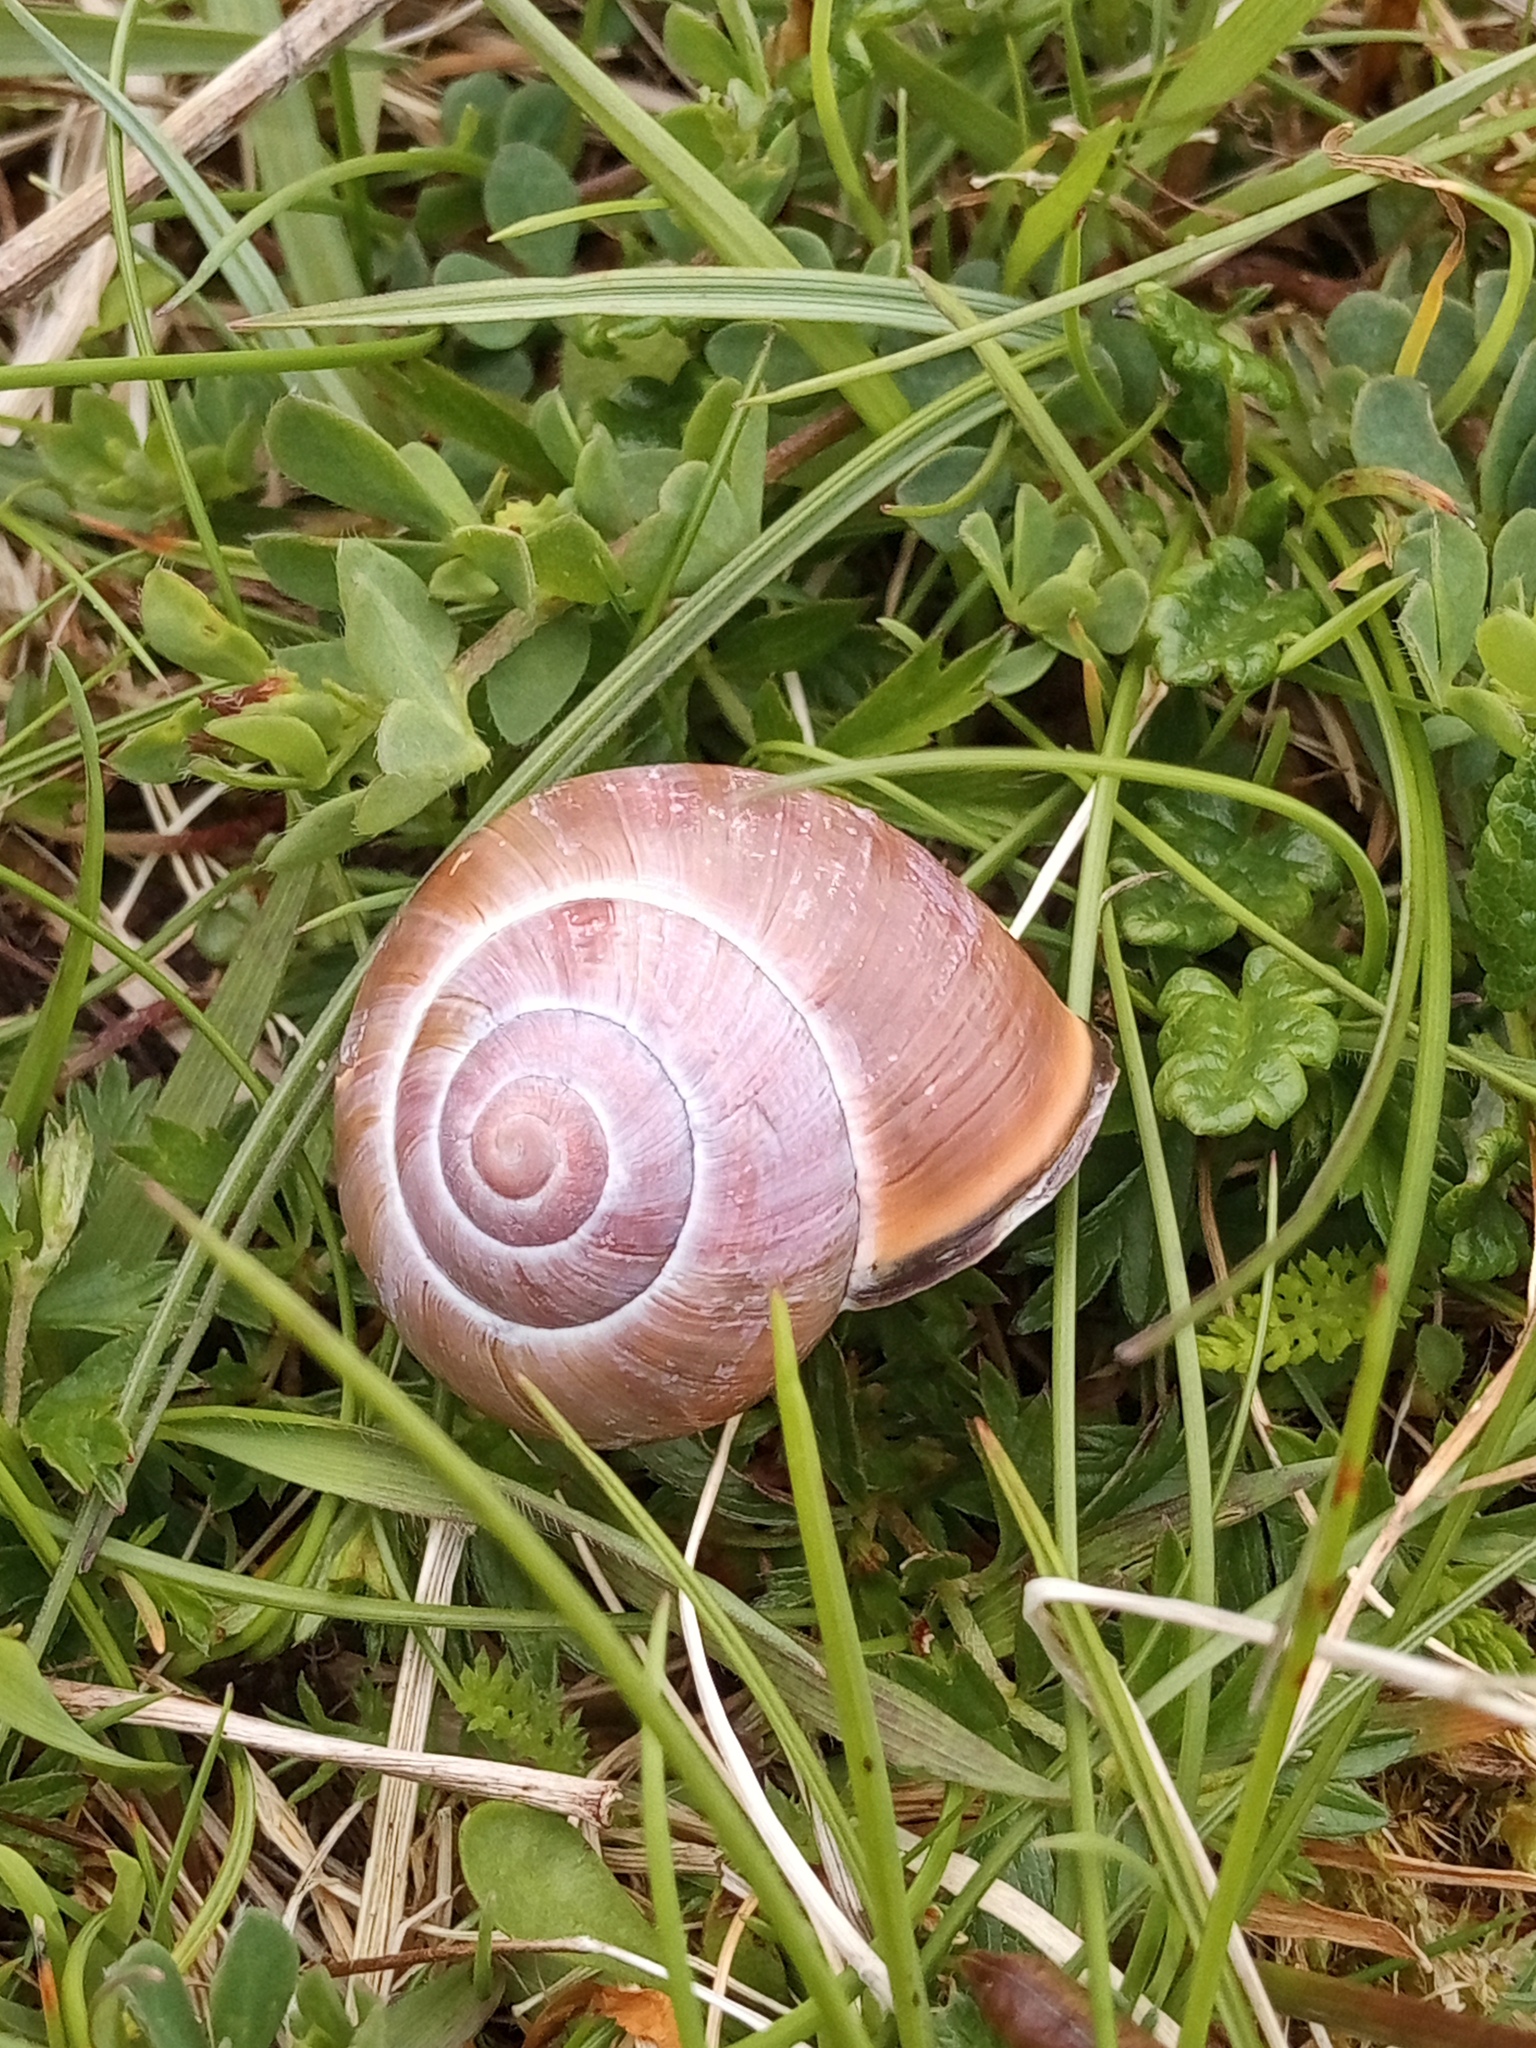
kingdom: Animalia
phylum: Mollusca
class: Gastropoda
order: Stylommatophora
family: Helicidae
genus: Cepaea
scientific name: Cepaea nemoralis
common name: Grovesnail
